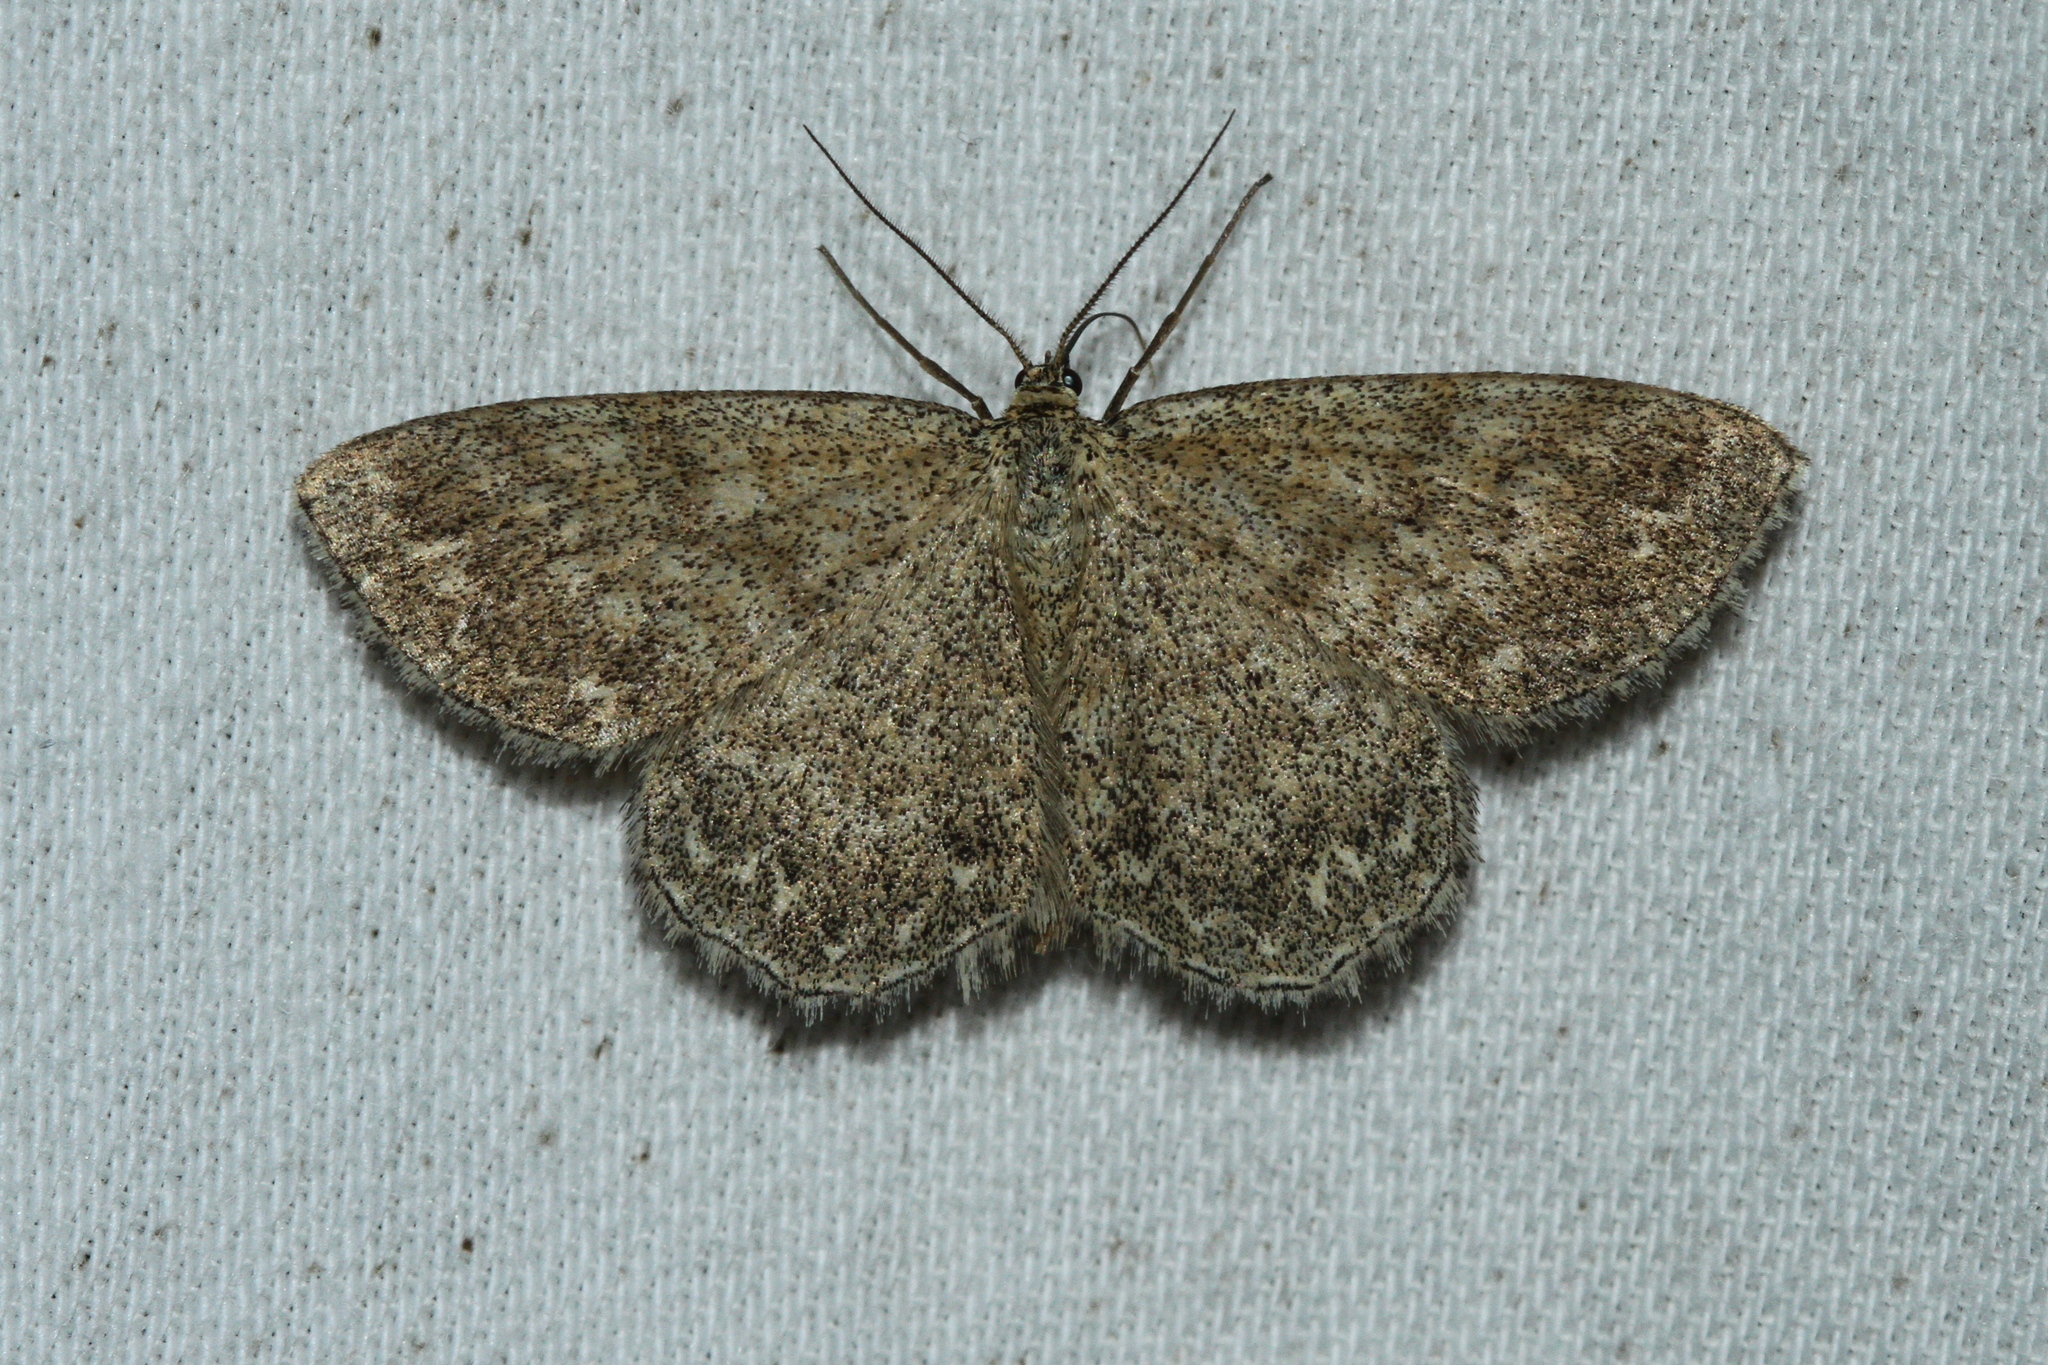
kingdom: Animalia
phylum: Arthropoda
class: Insecta
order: Lepidoptera
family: Geometridae
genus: Scopula
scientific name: Scopula immorata
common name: Lewes wave
